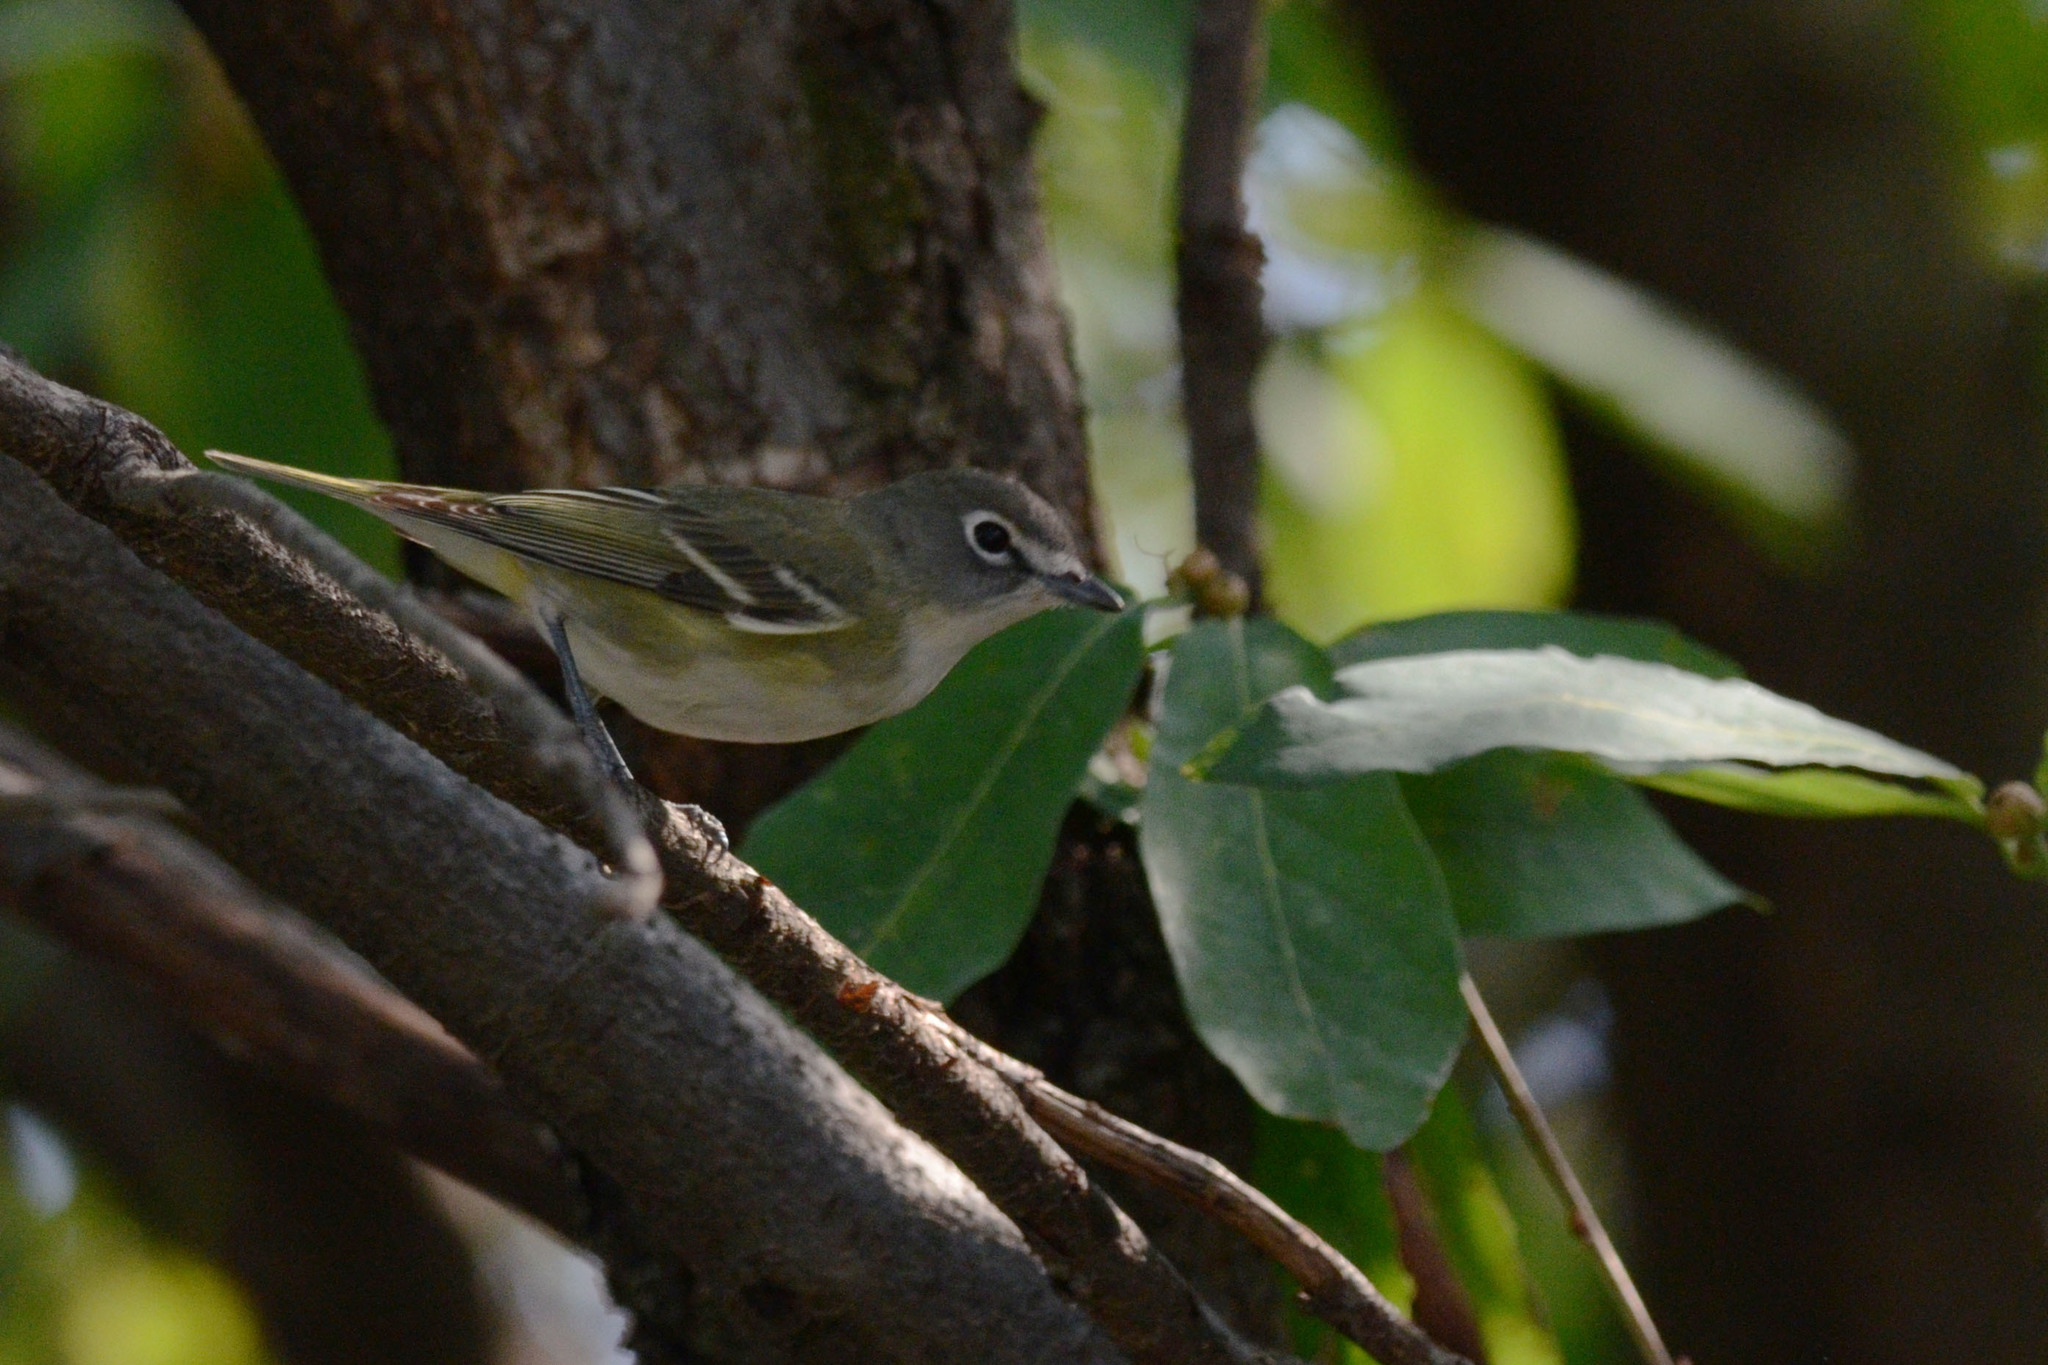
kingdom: Animalia
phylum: Chordata
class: Aves
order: Passeriformes
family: Vireonidae
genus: Vireo
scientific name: Vireo cassinii
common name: Cassin's vireo
